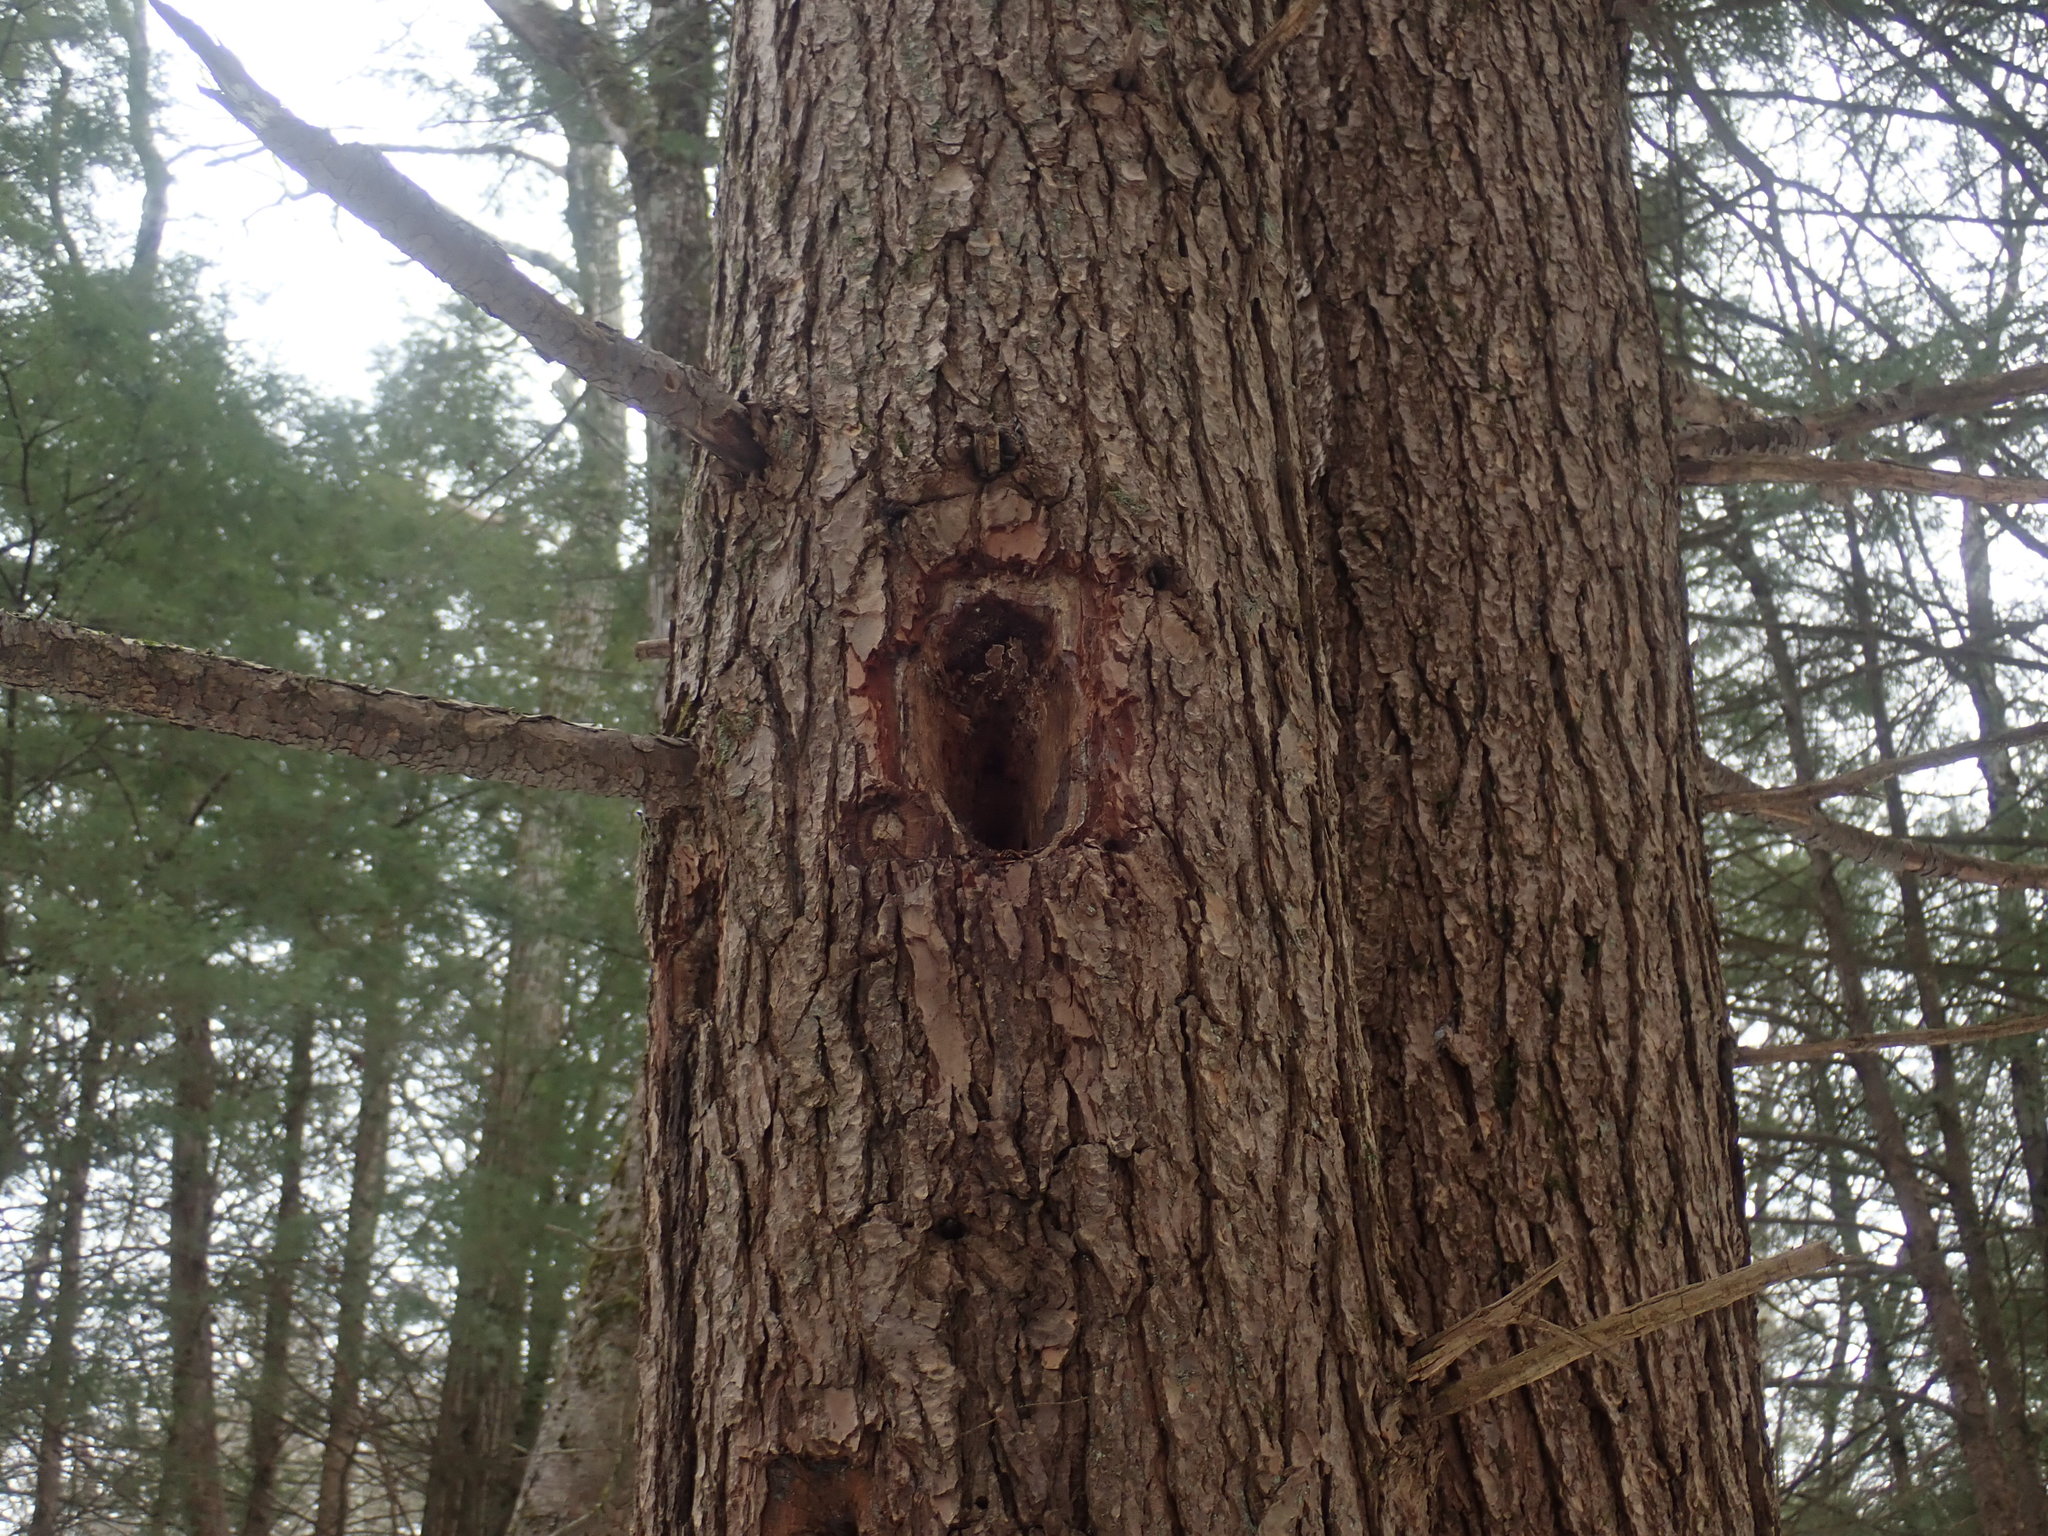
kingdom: Animalia
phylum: Chordata
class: Aves
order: Piciformes
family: Picidae
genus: Dryocopus
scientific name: Dryocopus pileatus
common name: Pileated woodpecker
